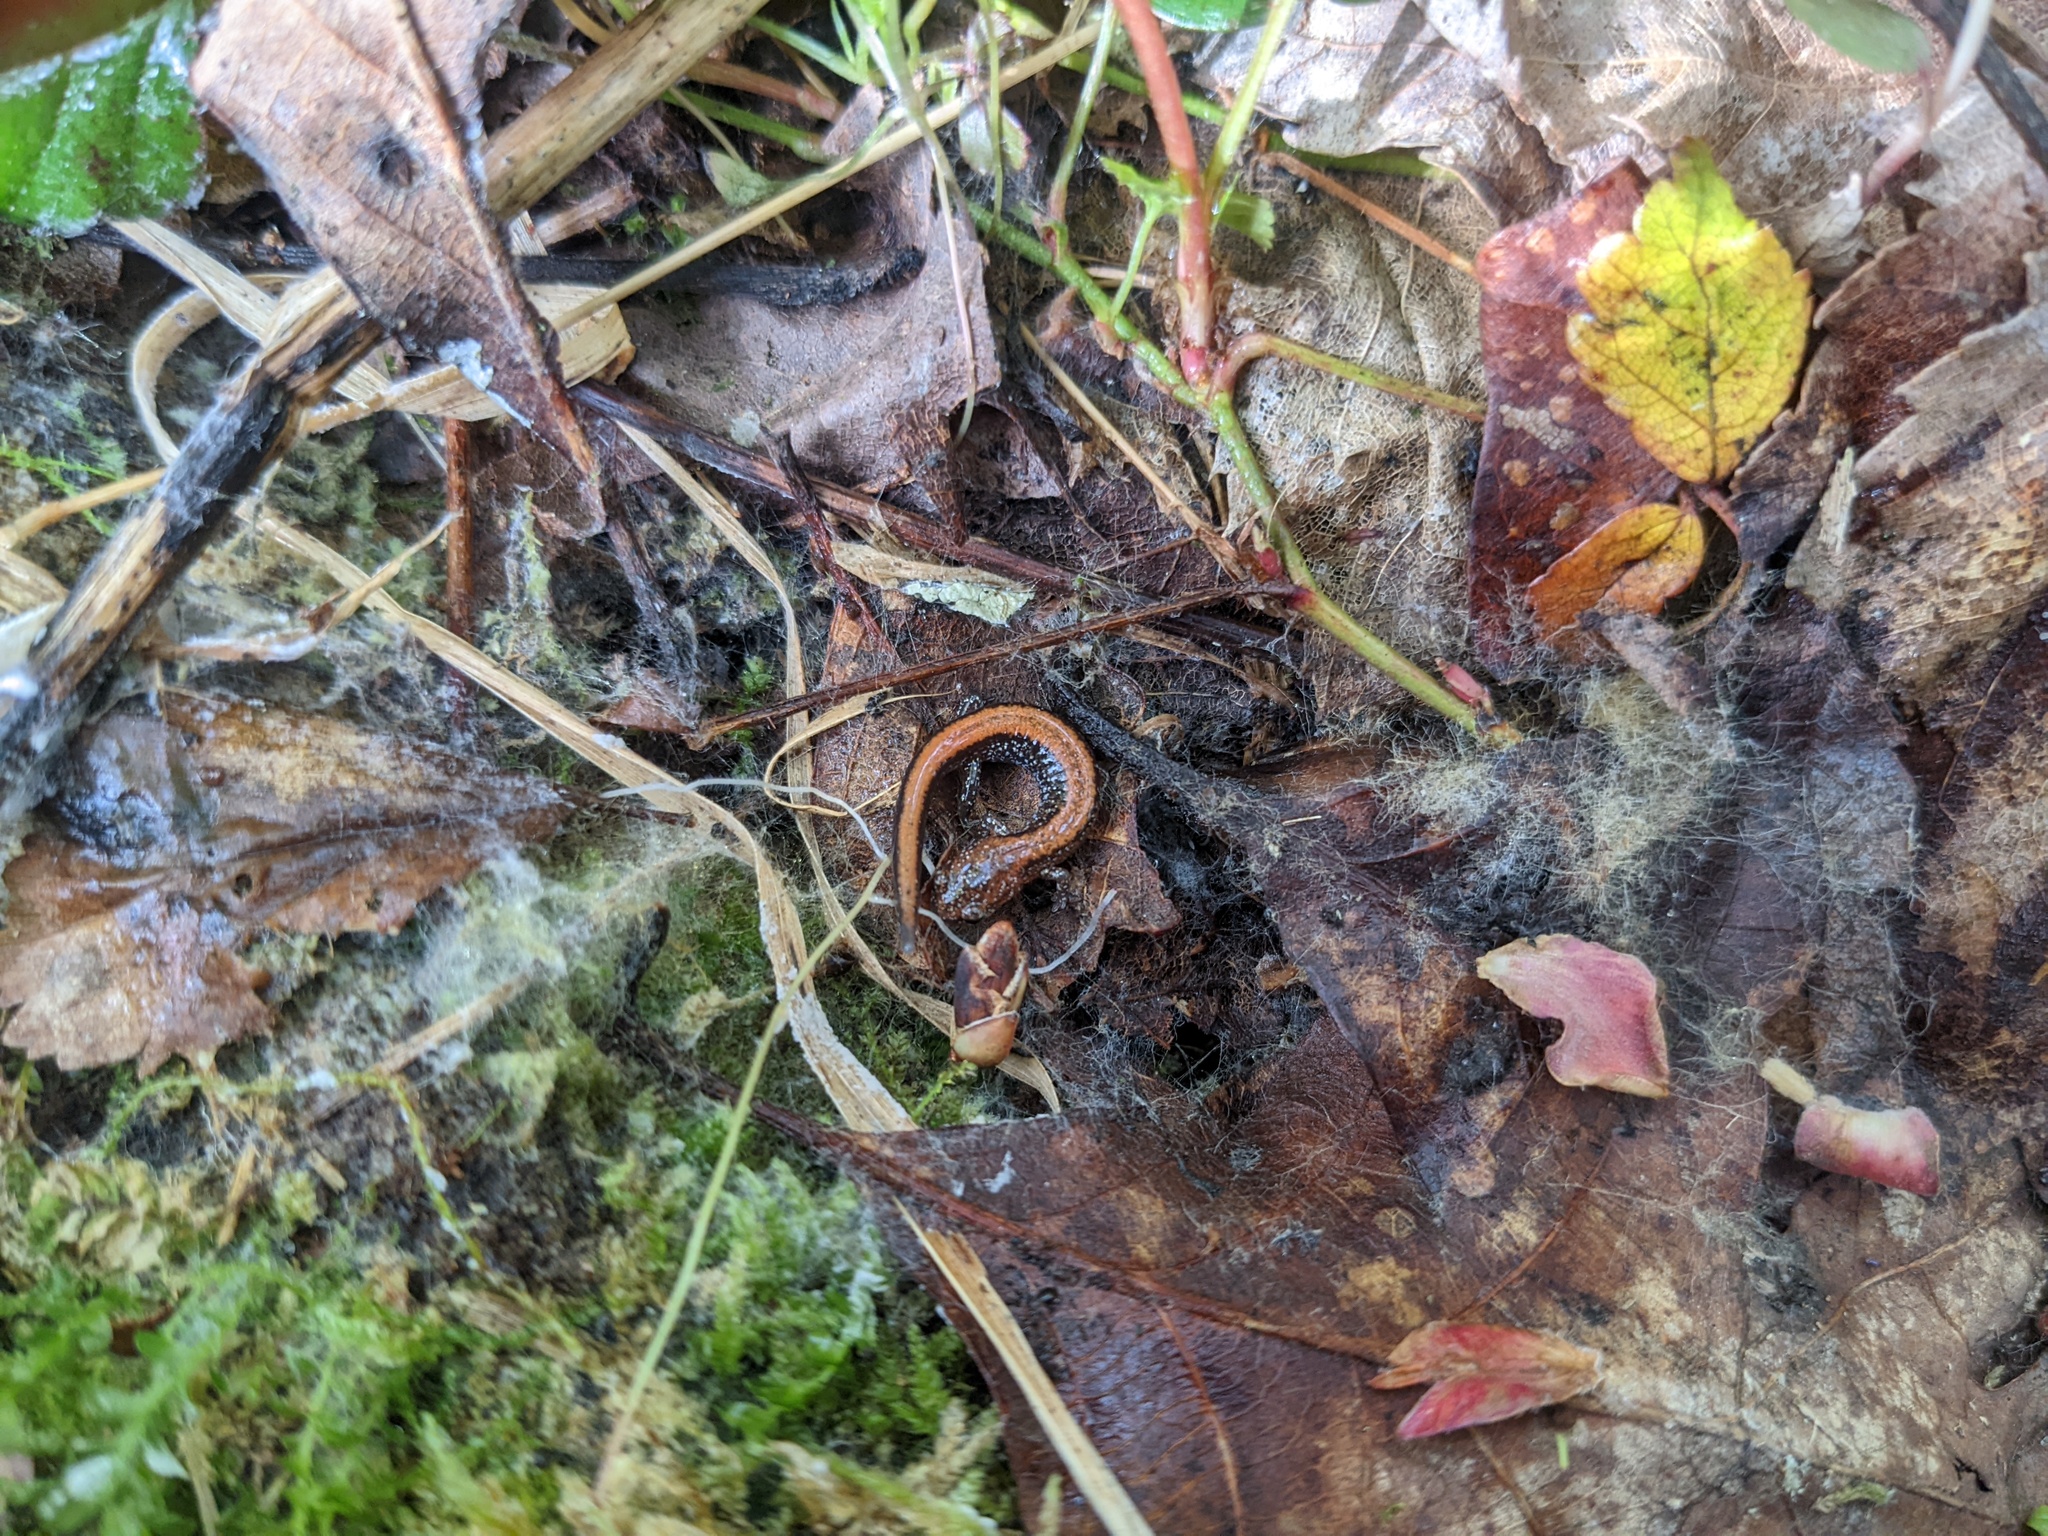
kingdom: Animalia
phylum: Chordata
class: Amphibia
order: Caudata
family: Plethodontidae
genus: Plethodon
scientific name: Plethodon cinereus
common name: Redback salamander
